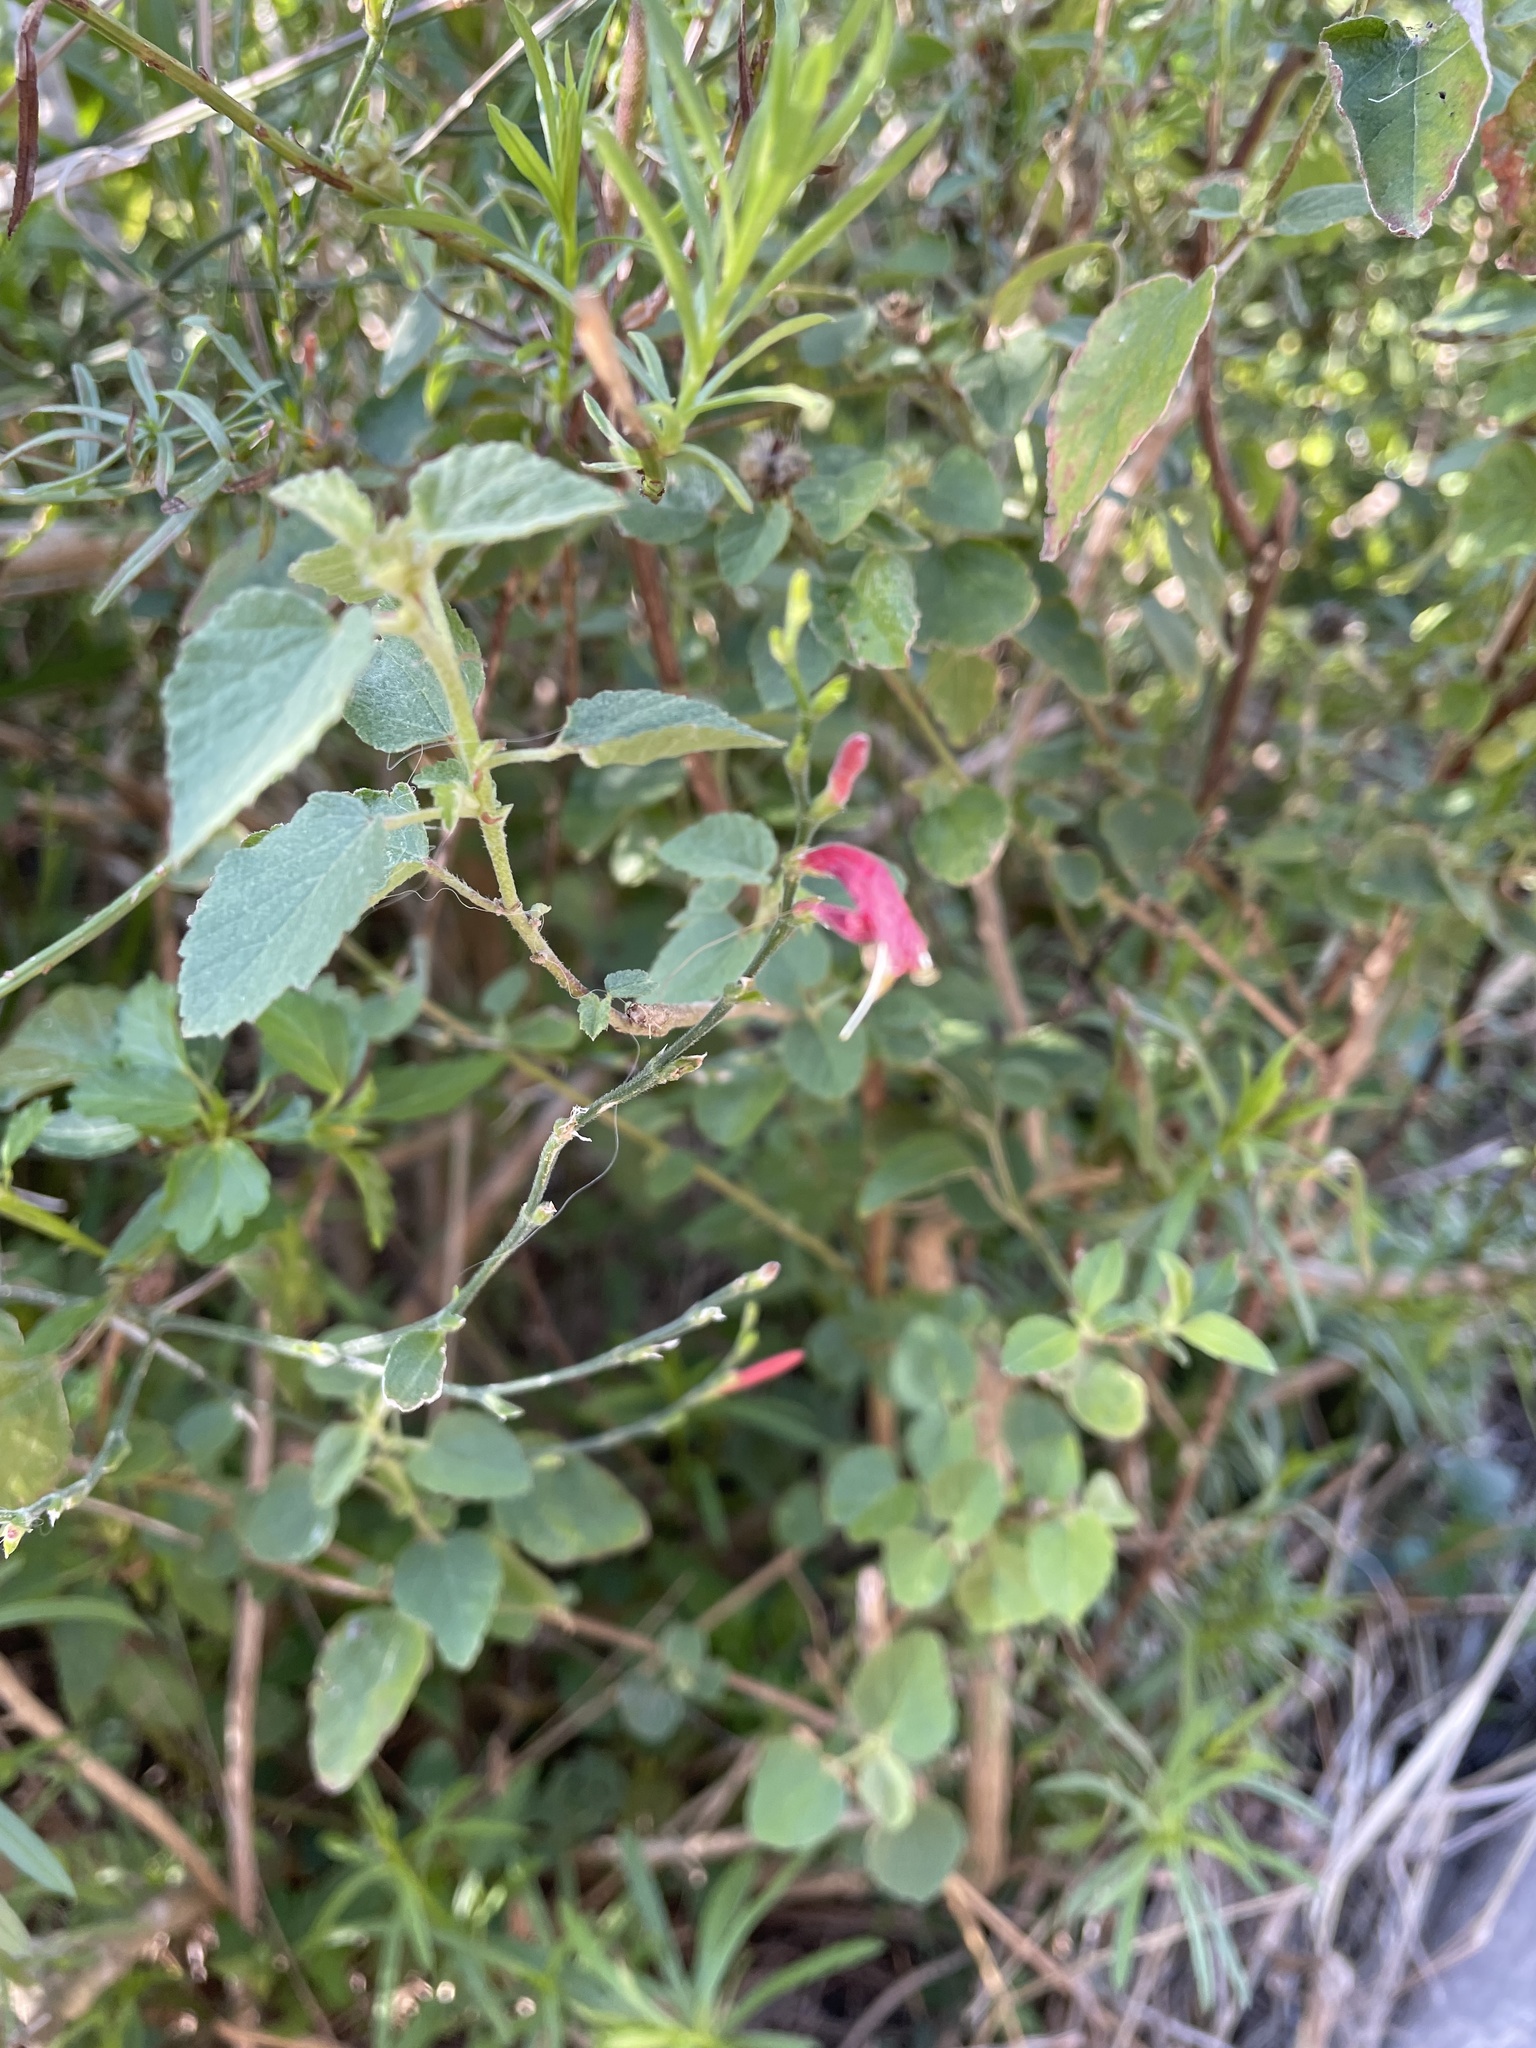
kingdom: Plantae
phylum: Tracheophyta
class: Magnoliopsida
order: Lamiales
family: Acanthaceae
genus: Dicliptera
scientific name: Dicliptera sexangularis
